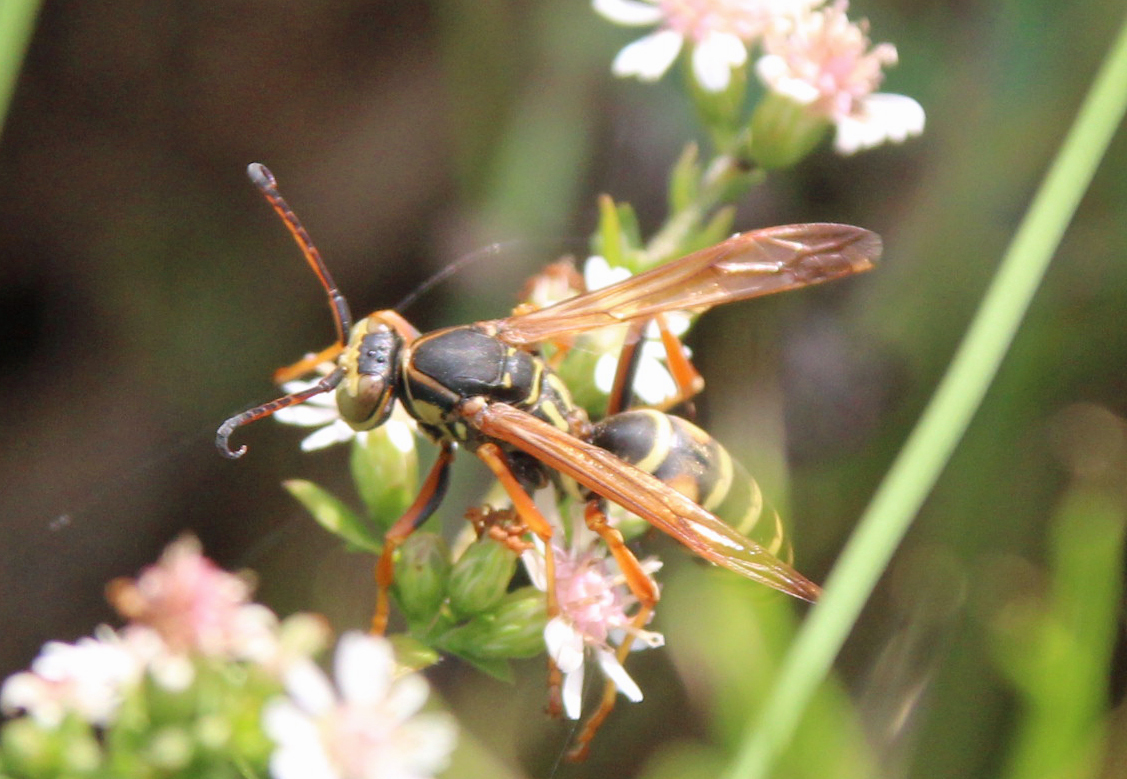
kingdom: Animalia
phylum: Arthropoda
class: Insecta
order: Hymenoptera
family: Eumenidae
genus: Polistes
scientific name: Polistes fuscatus
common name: Dark paper wasp
